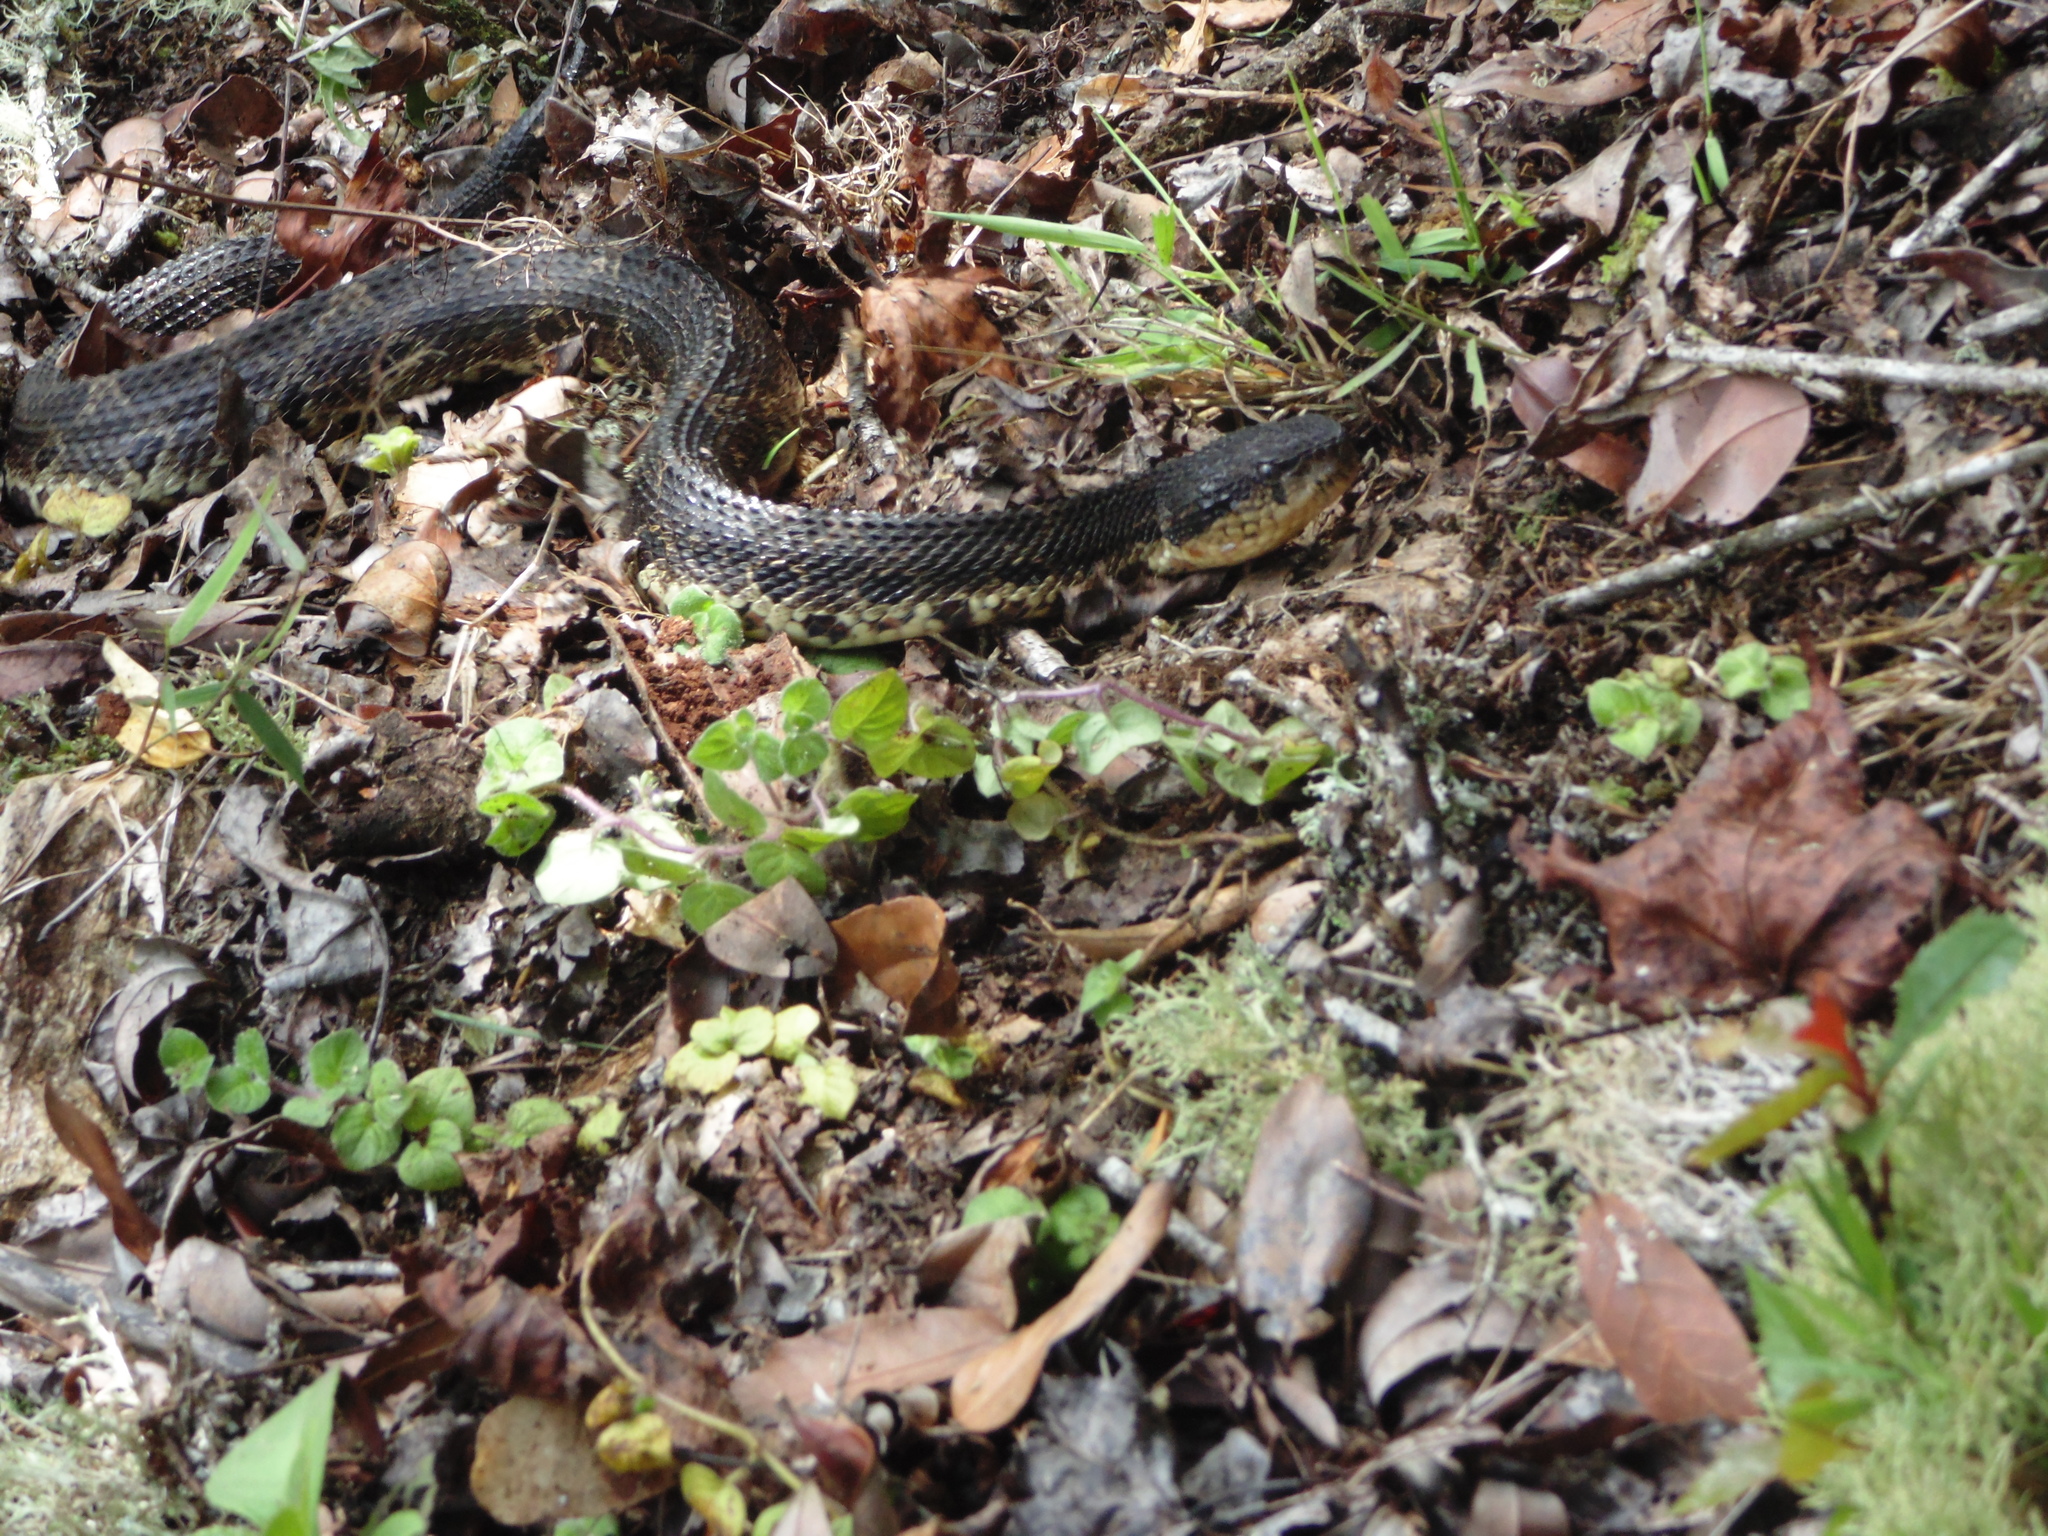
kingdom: Animalia
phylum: Chordata
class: Squamata
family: Viperidae
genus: Metlapilcoatlus
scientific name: Metlapilcoatlus borealis
